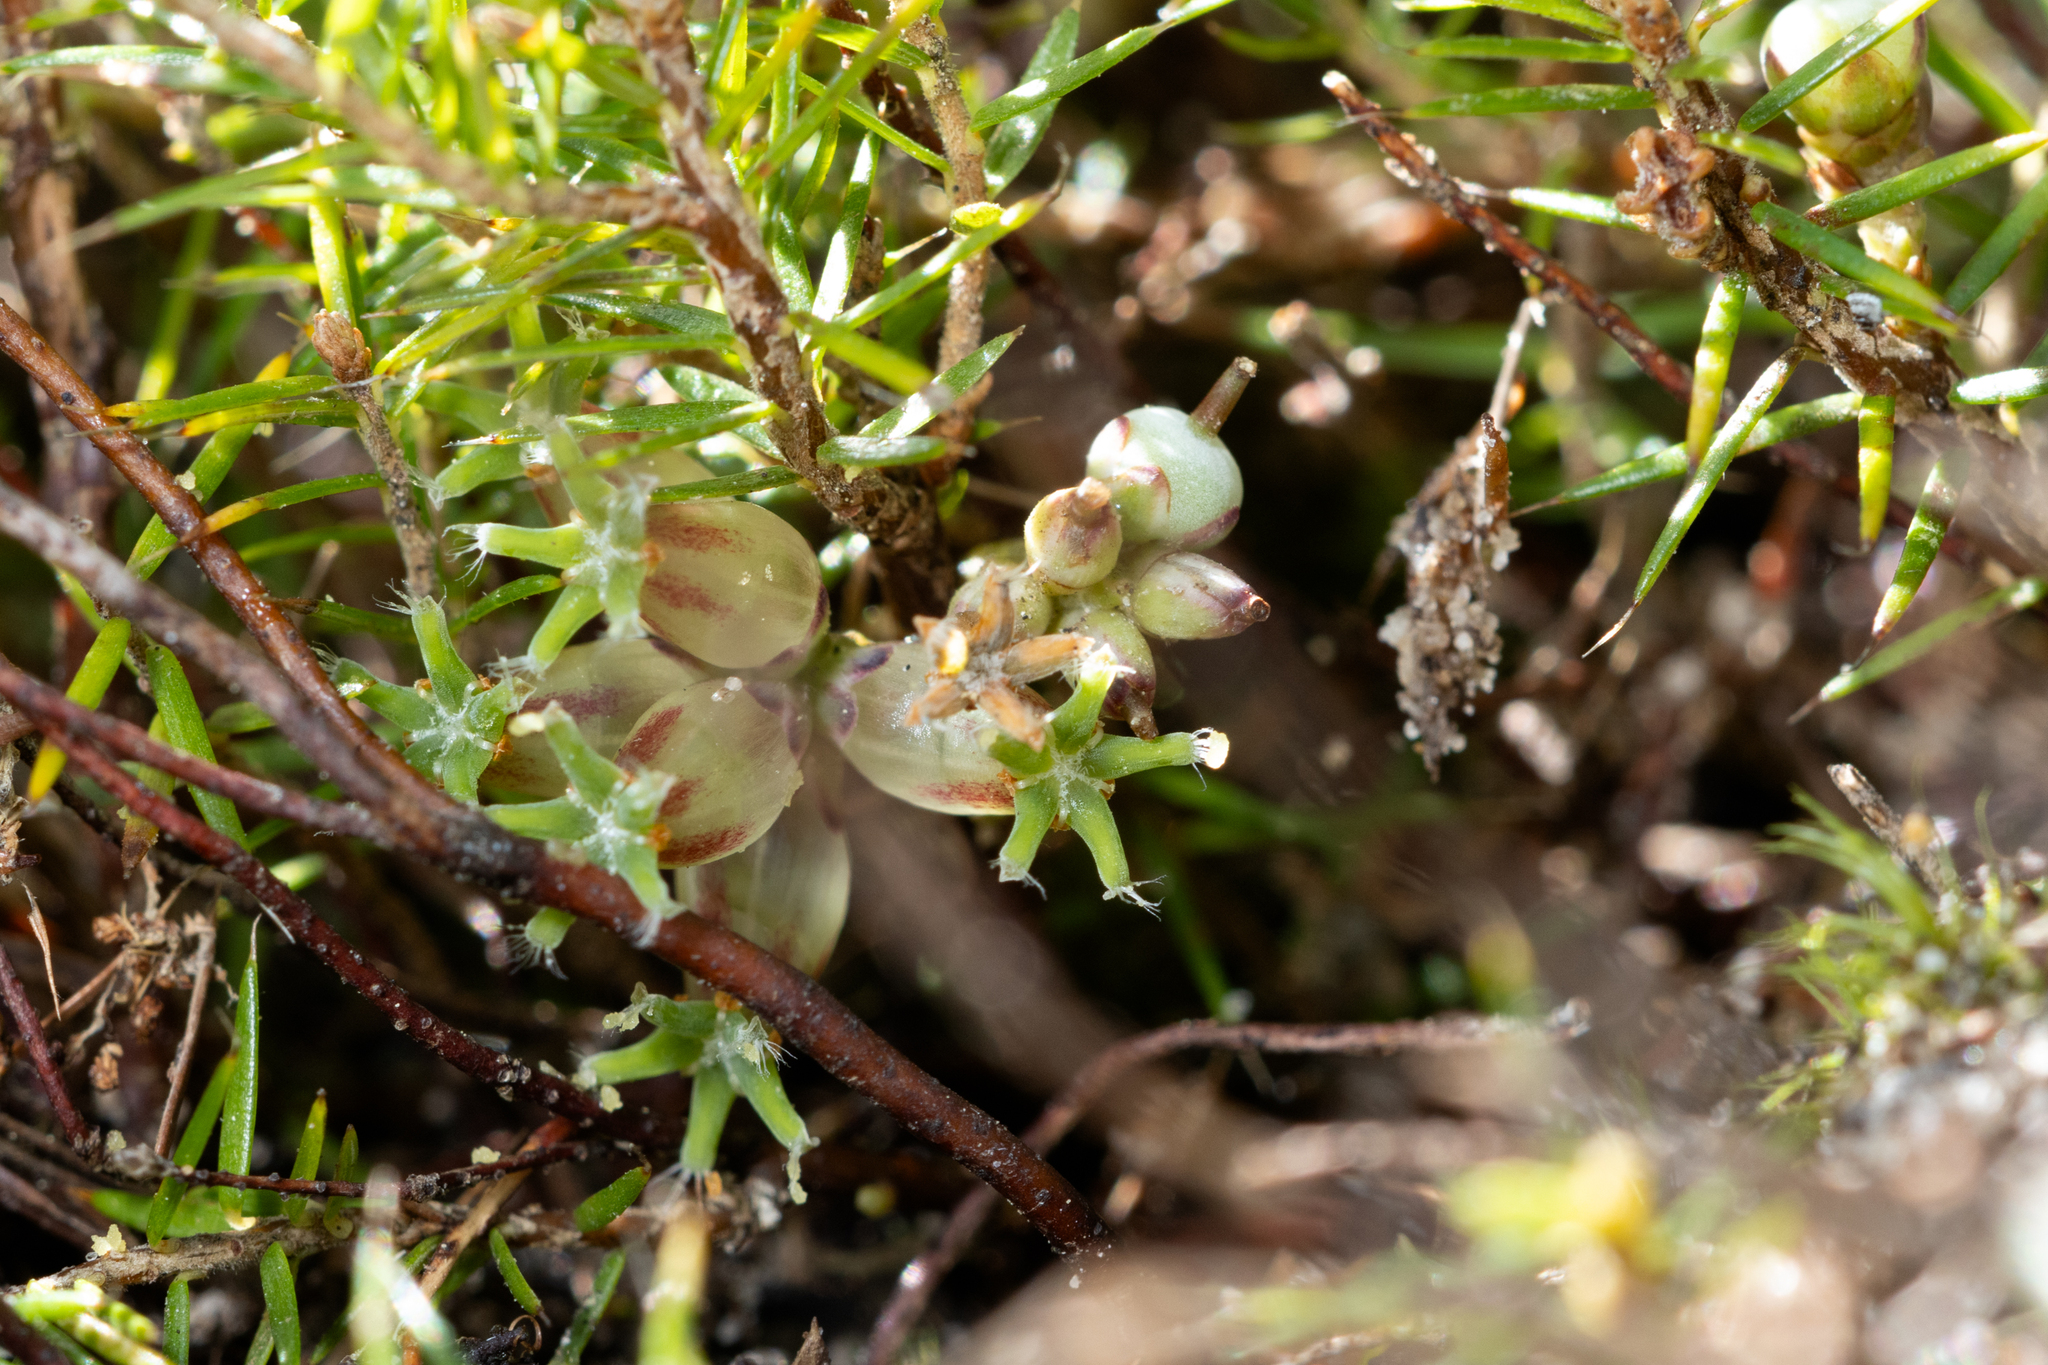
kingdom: Plantae
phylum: Tracheophyta
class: Magnoliopsida
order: Ericales
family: Ericaceae
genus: Acrotriche
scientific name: Acrotriche serrulata
